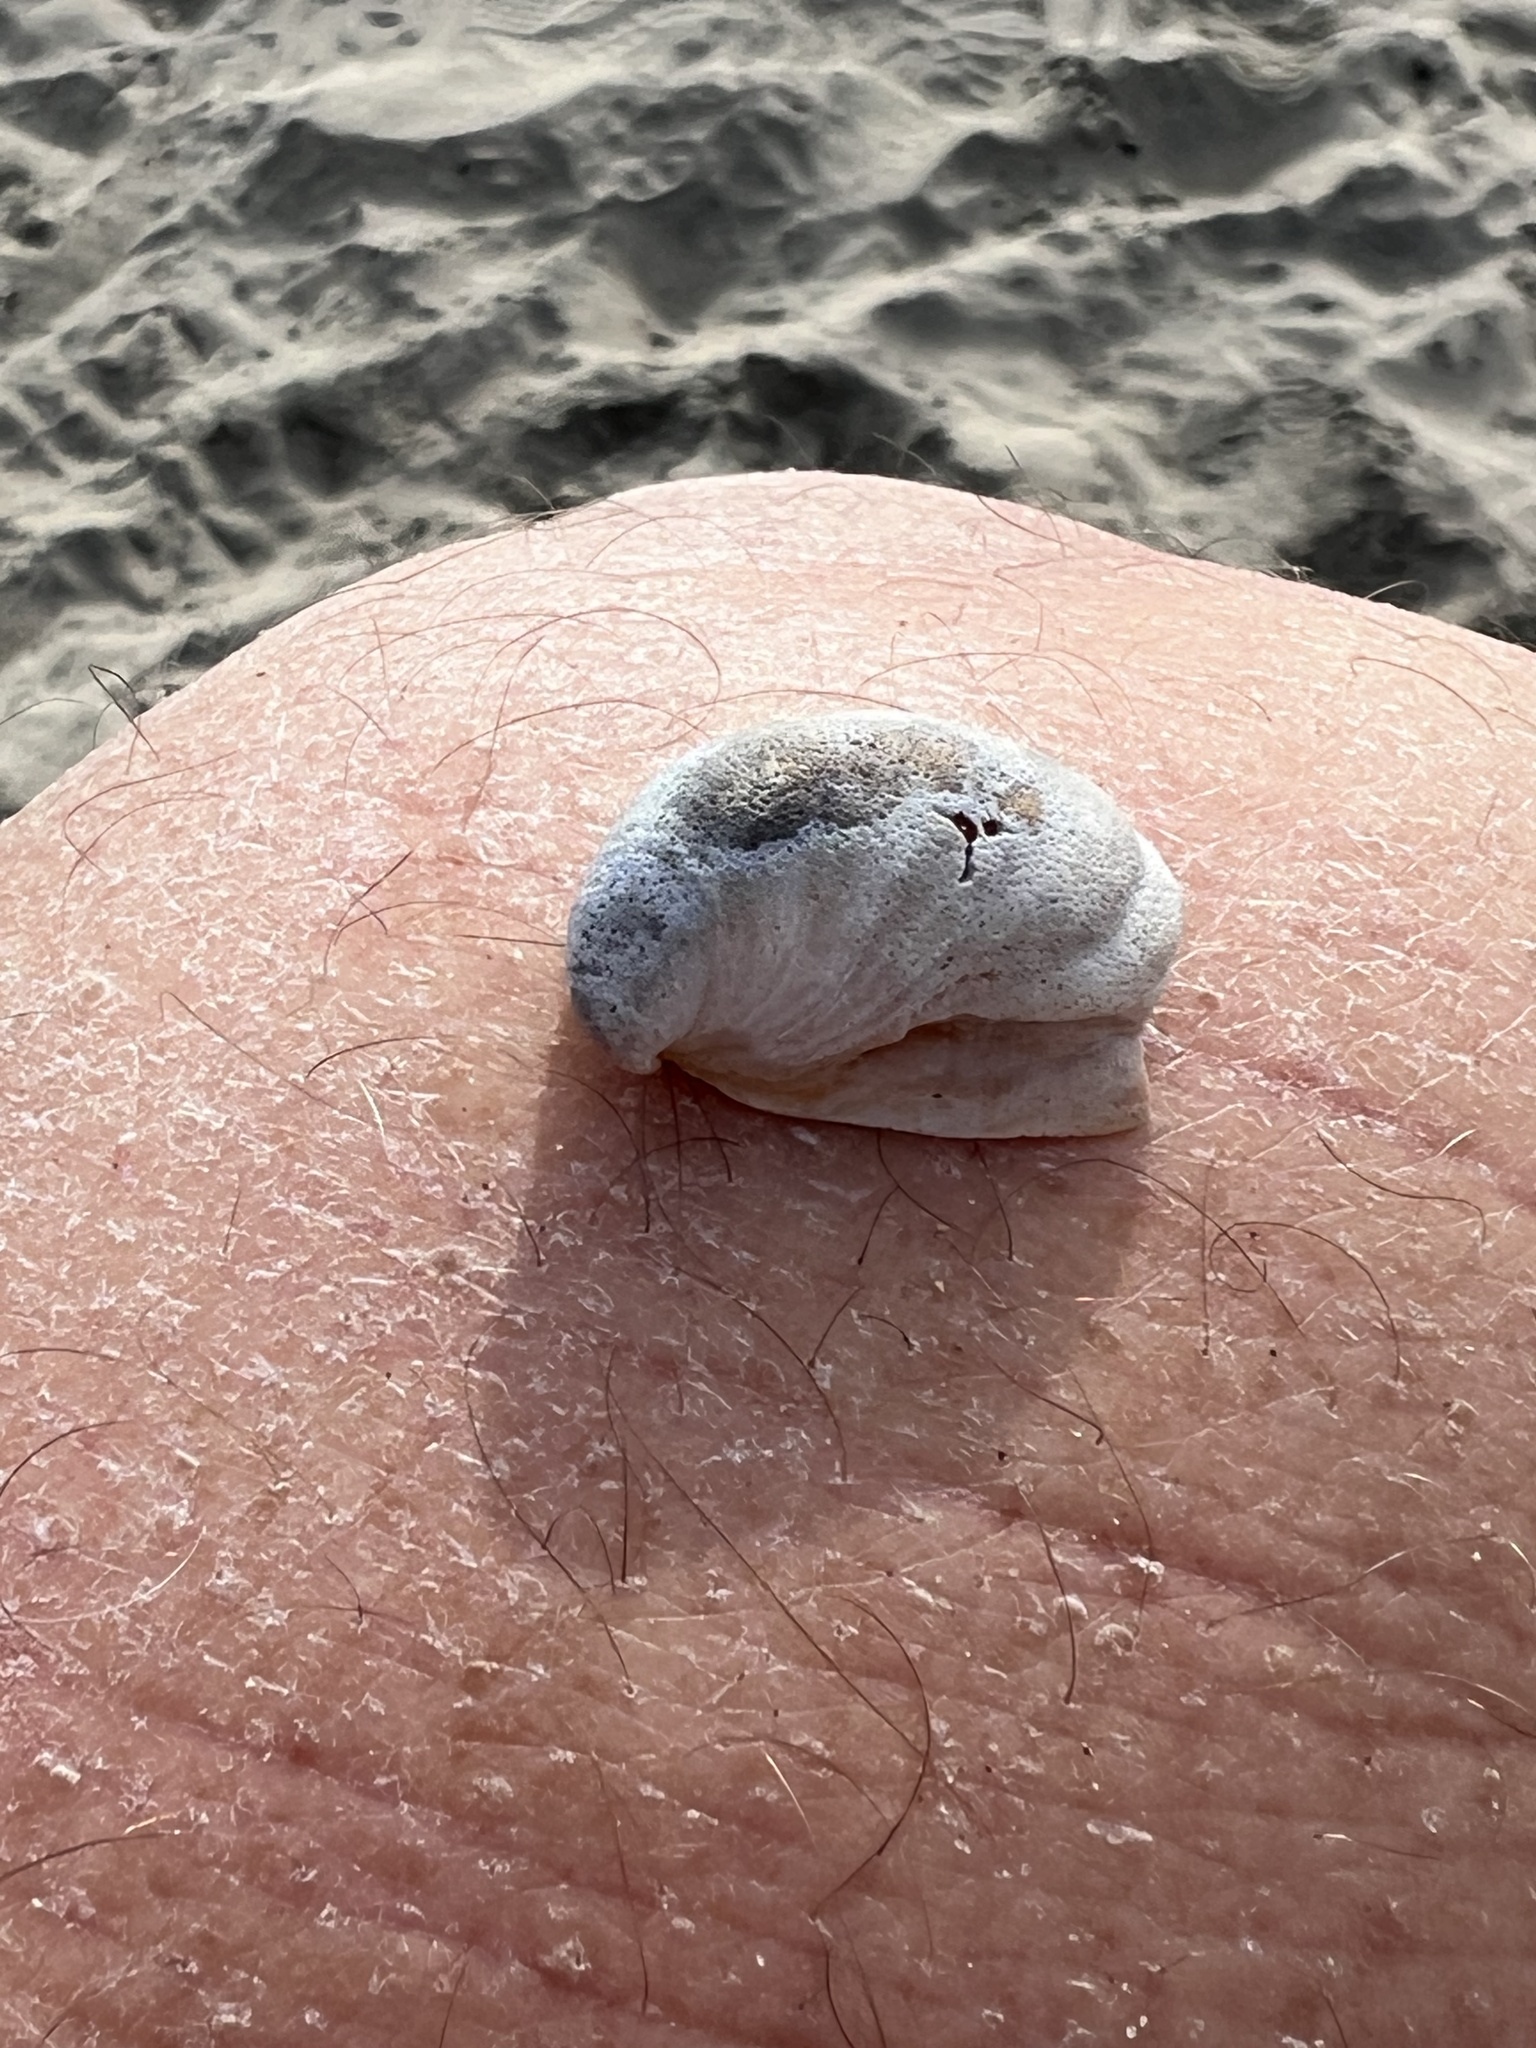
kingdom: Animalia
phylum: Mollusca
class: Gastropoda
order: Littorinimorpha
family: Calyptraeidae
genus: Crepidula
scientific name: Crepidula onyx
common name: Onyx slippersnail
